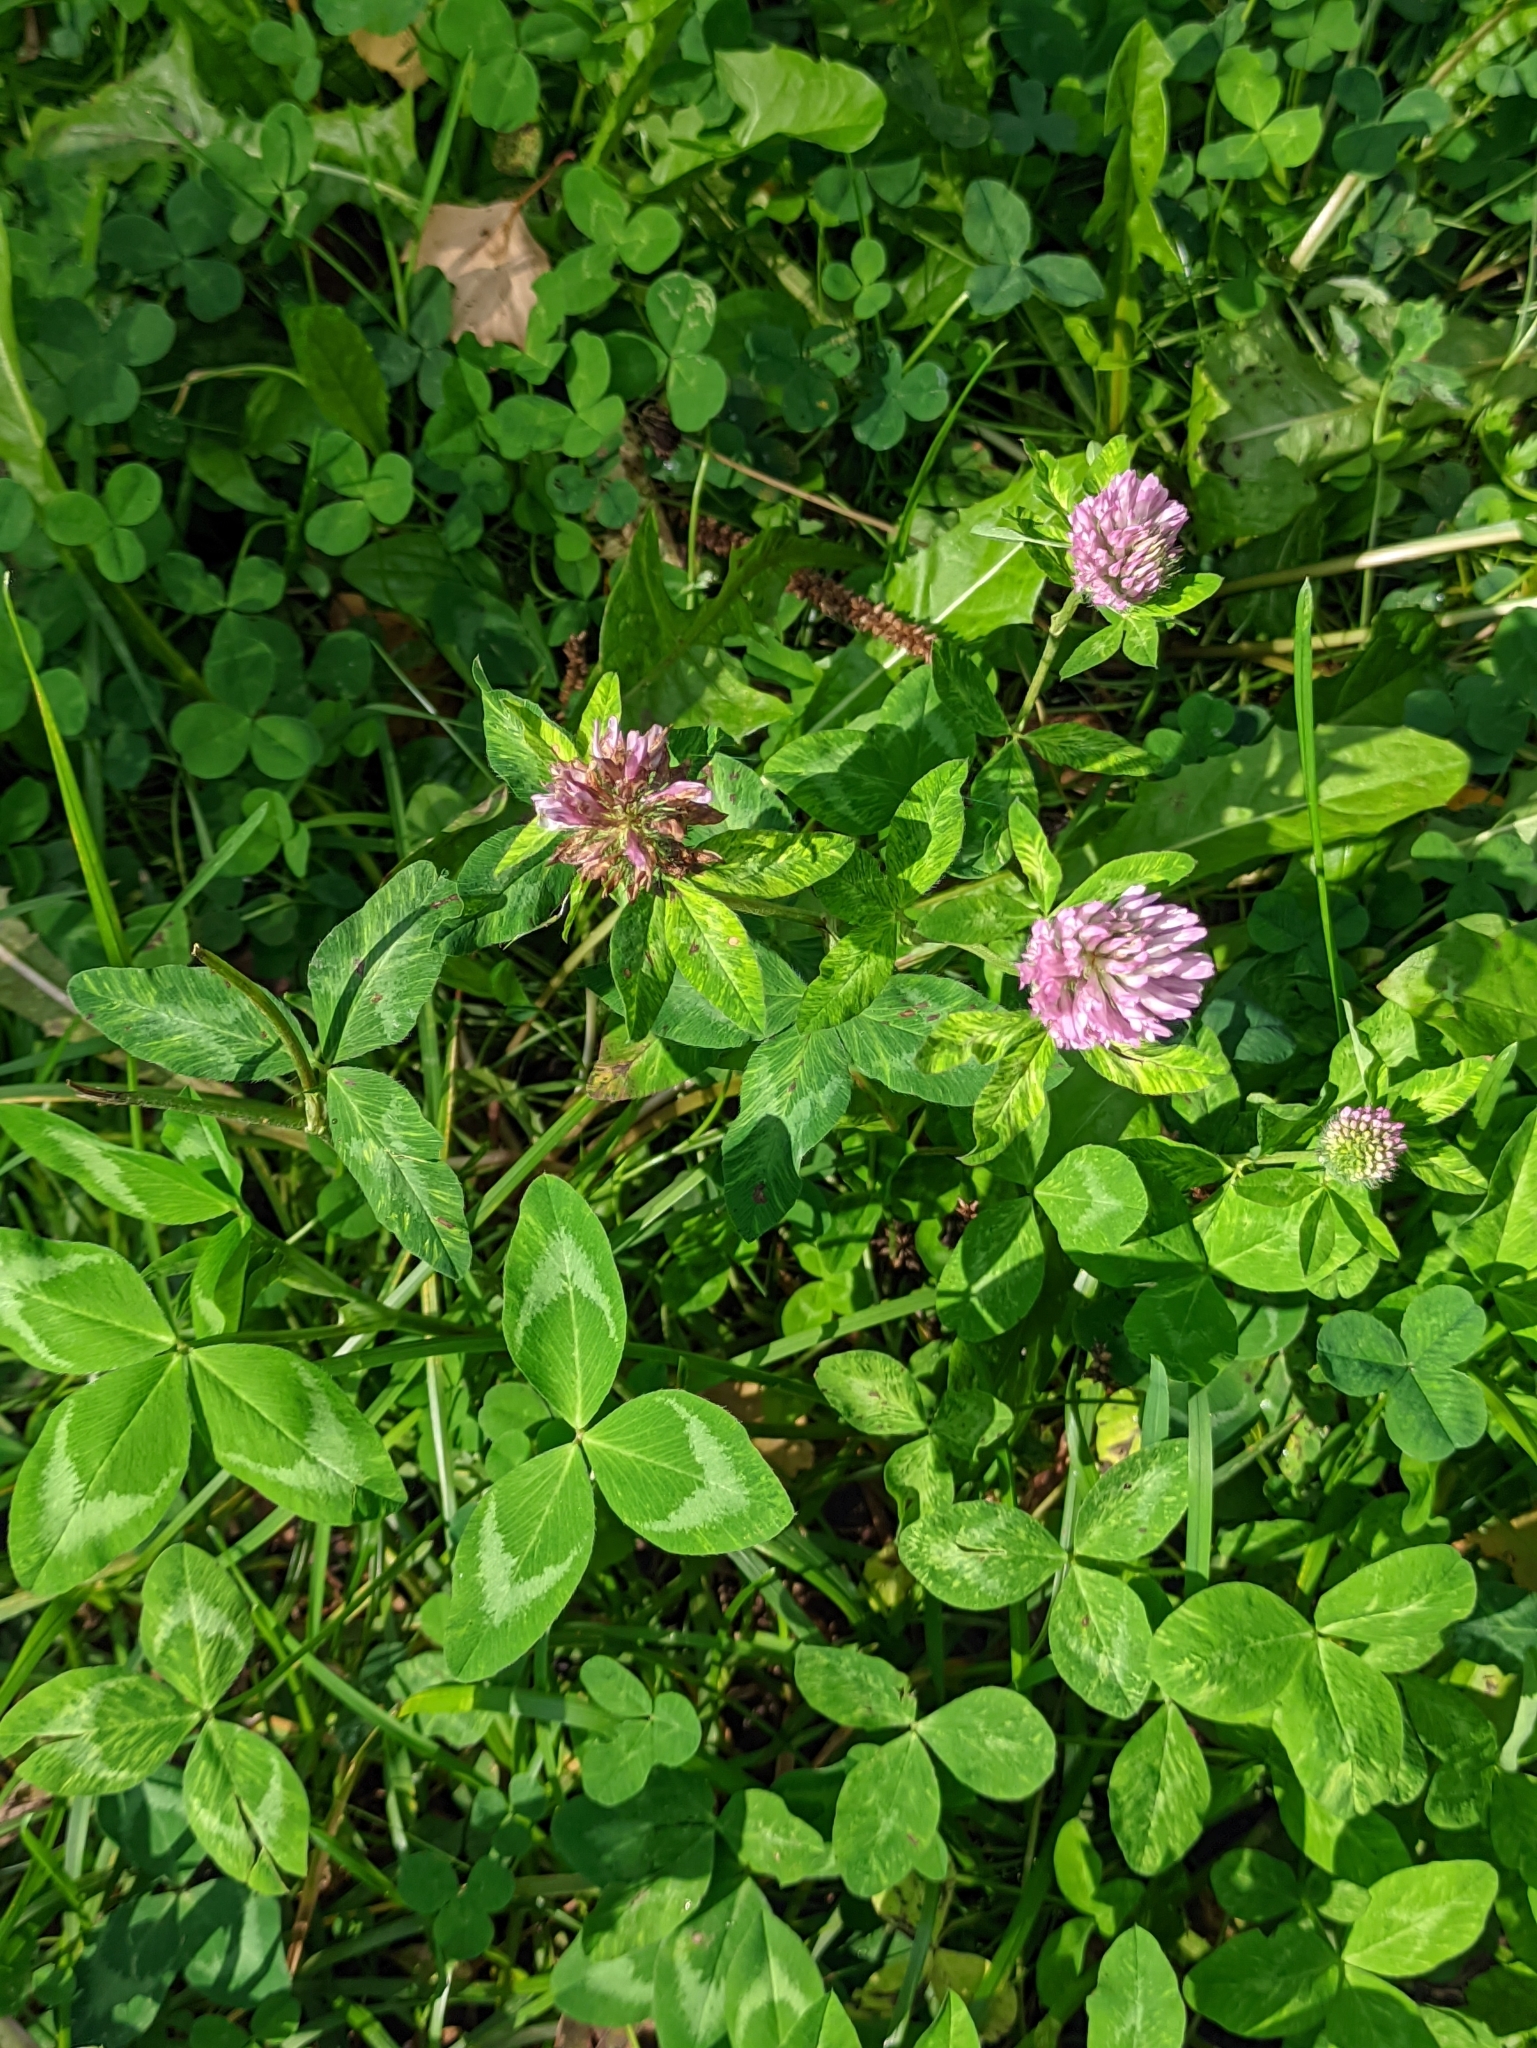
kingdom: Plantae
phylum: Tracheophyta
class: Magnoliopsida
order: Fabales
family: Fabaceae
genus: Trifolium
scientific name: Trifolium pratense
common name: Red clover
